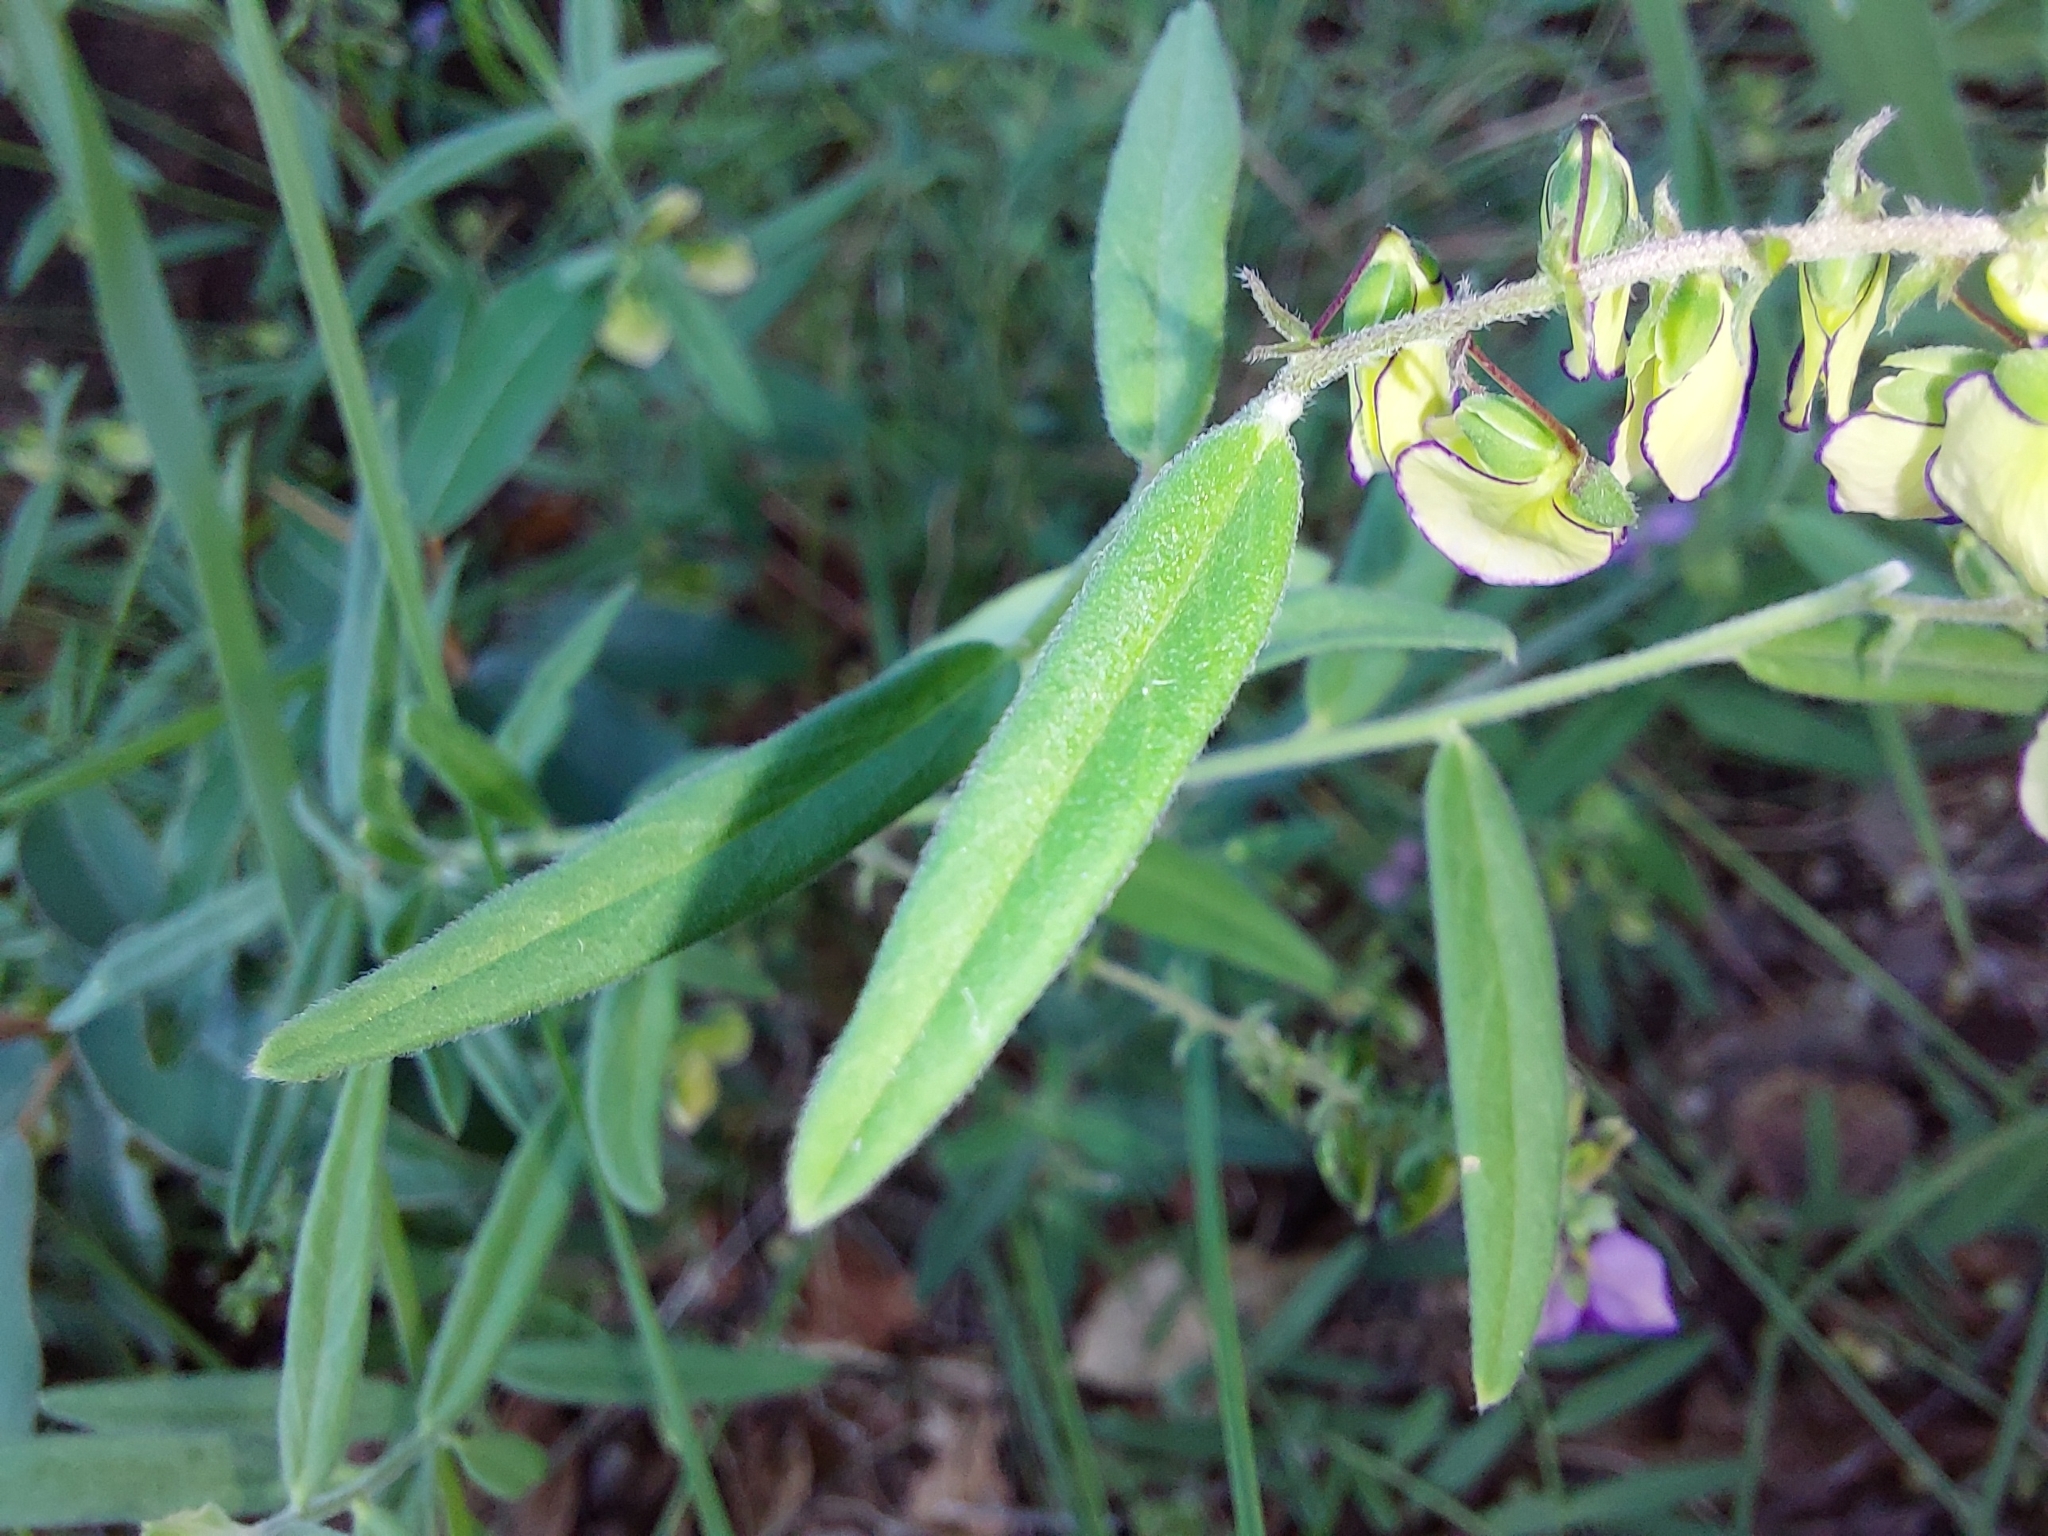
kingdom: Plantae
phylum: Tracheophyta
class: Magnoliopsida
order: Fabales
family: Polygalaceae
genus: Polygala
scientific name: Polygala sphenoptera
